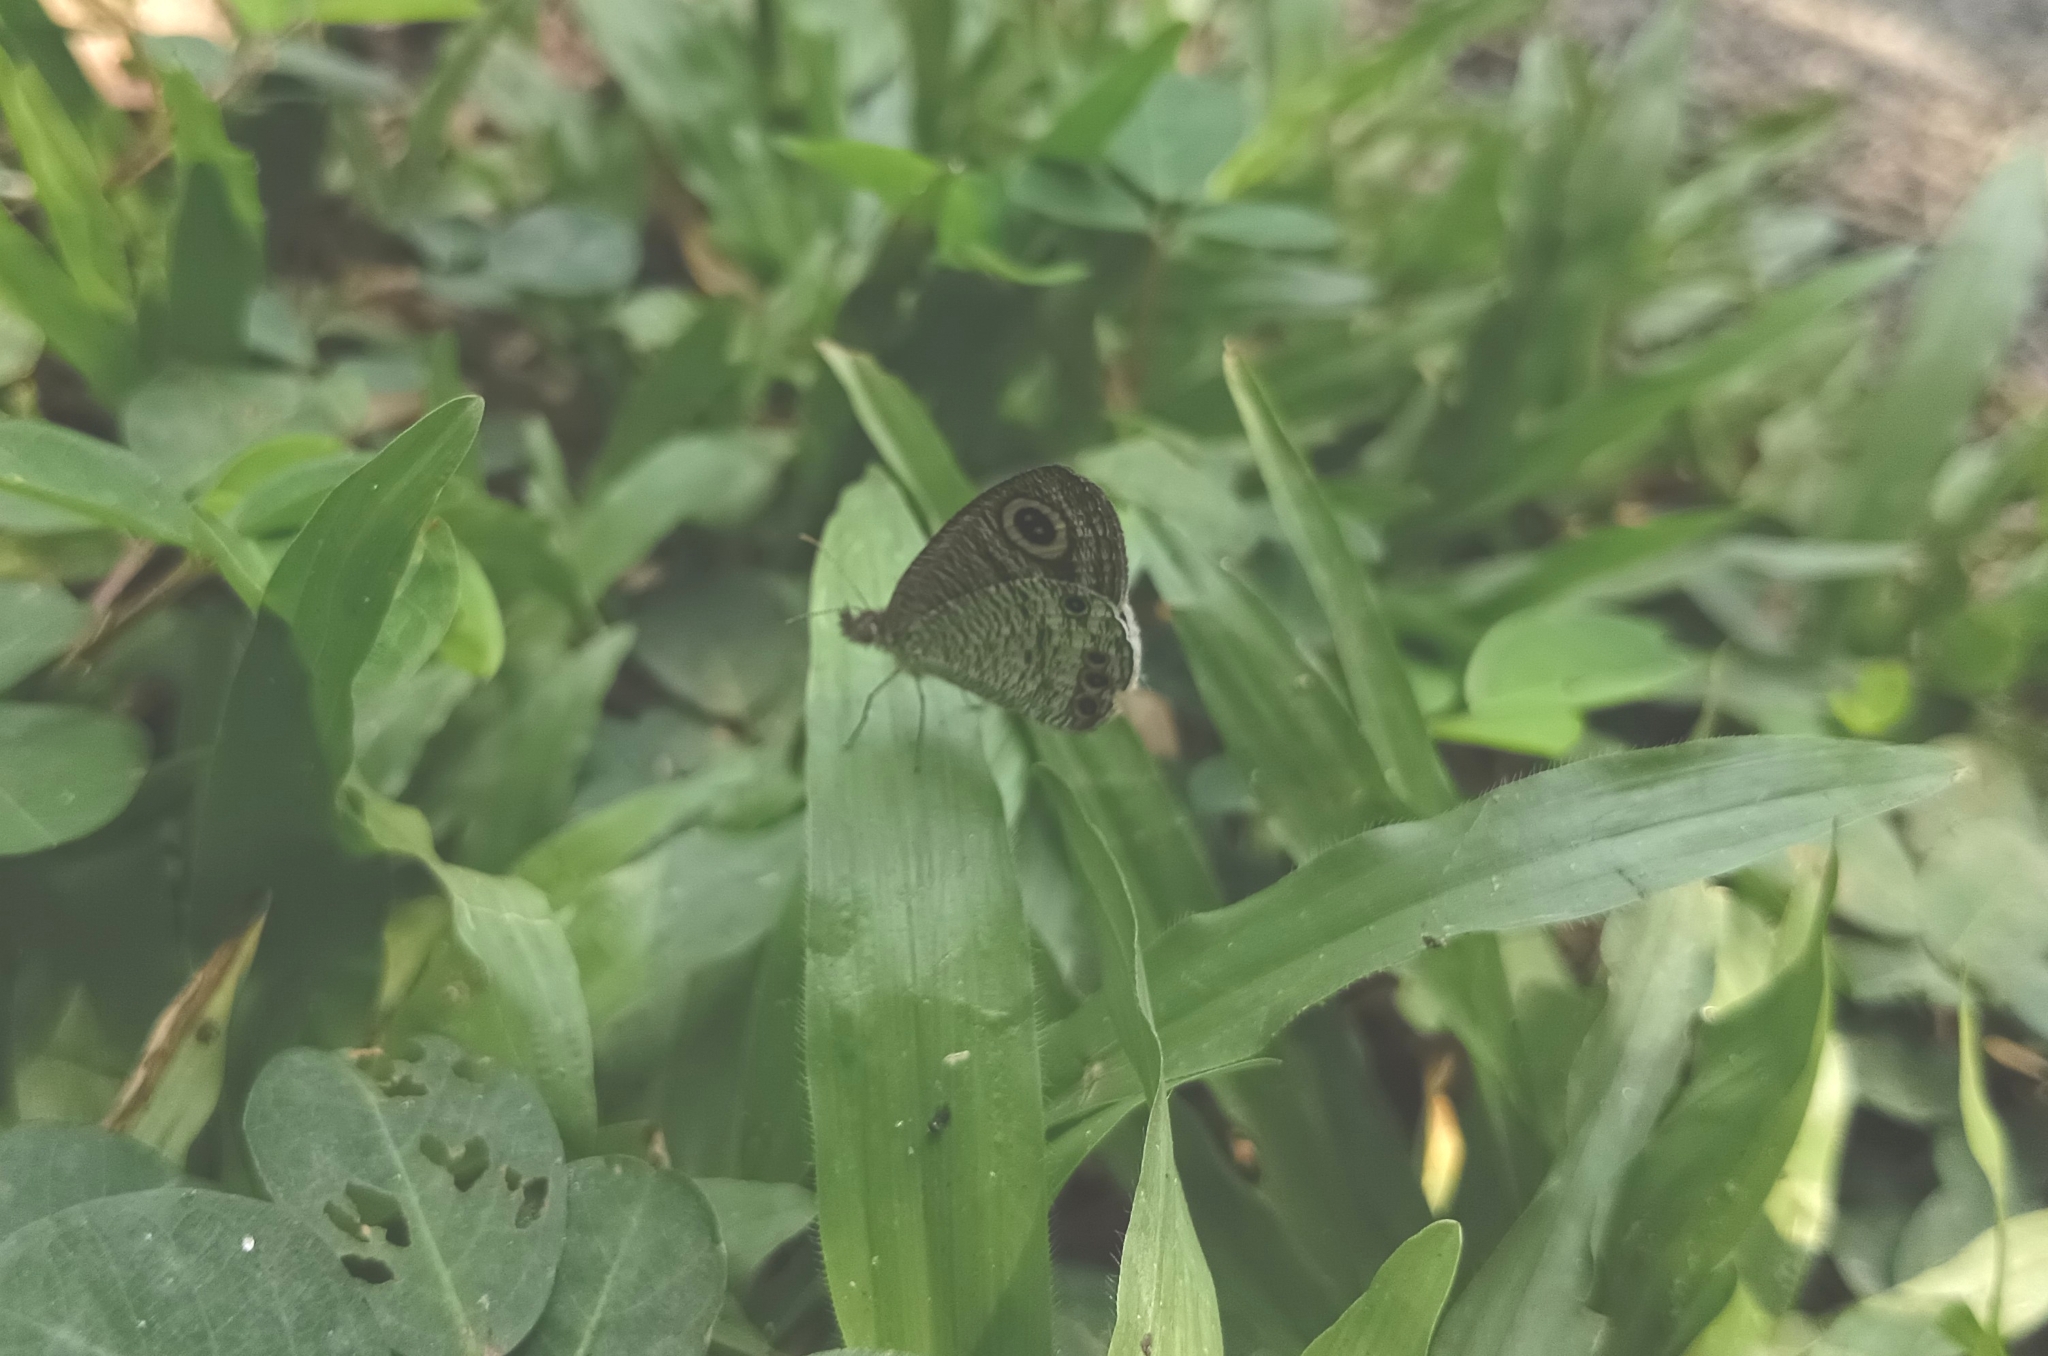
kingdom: Animalia
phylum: Arthropoda
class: Insecta
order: Lepidoptera
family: Nymphalidae
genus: Ypthima
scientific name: Ypthima huebneri
